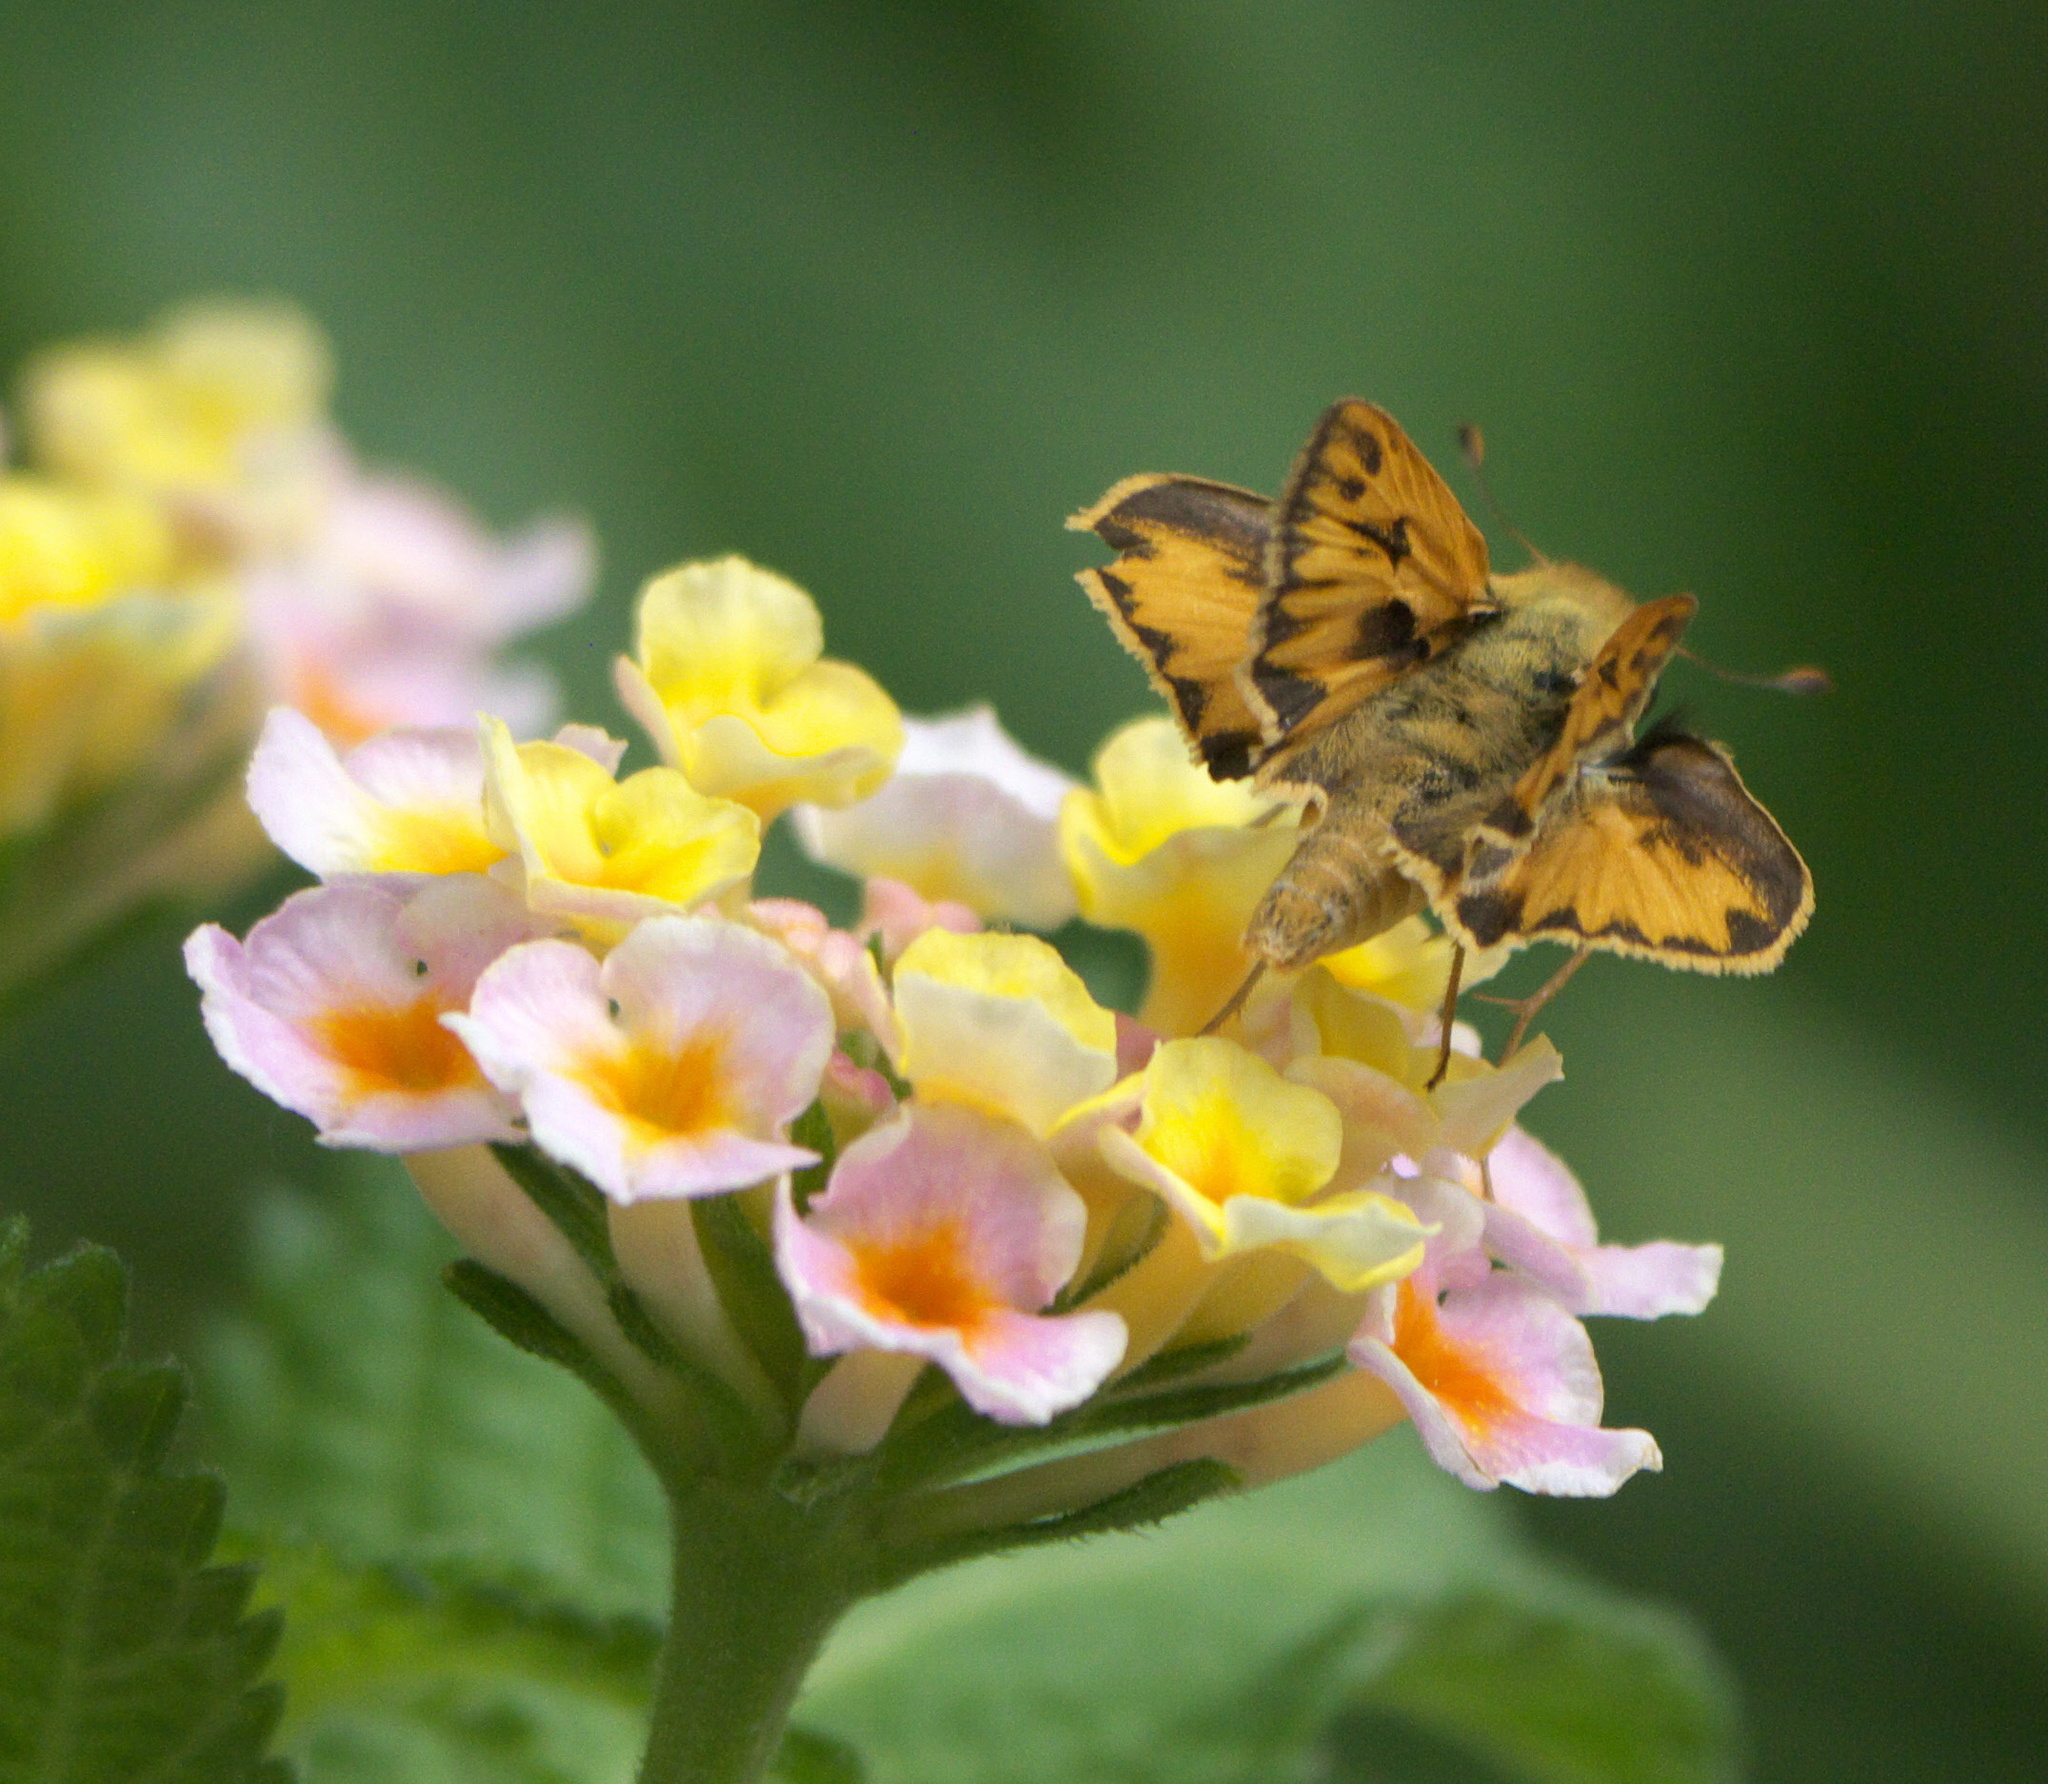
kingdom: Animalia
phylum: Arthropoda
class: Insecta
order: Lepidoptera
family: Hesperiidae
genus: Hylephila
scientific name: Hylephila phyleus
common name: Fiery skipper
